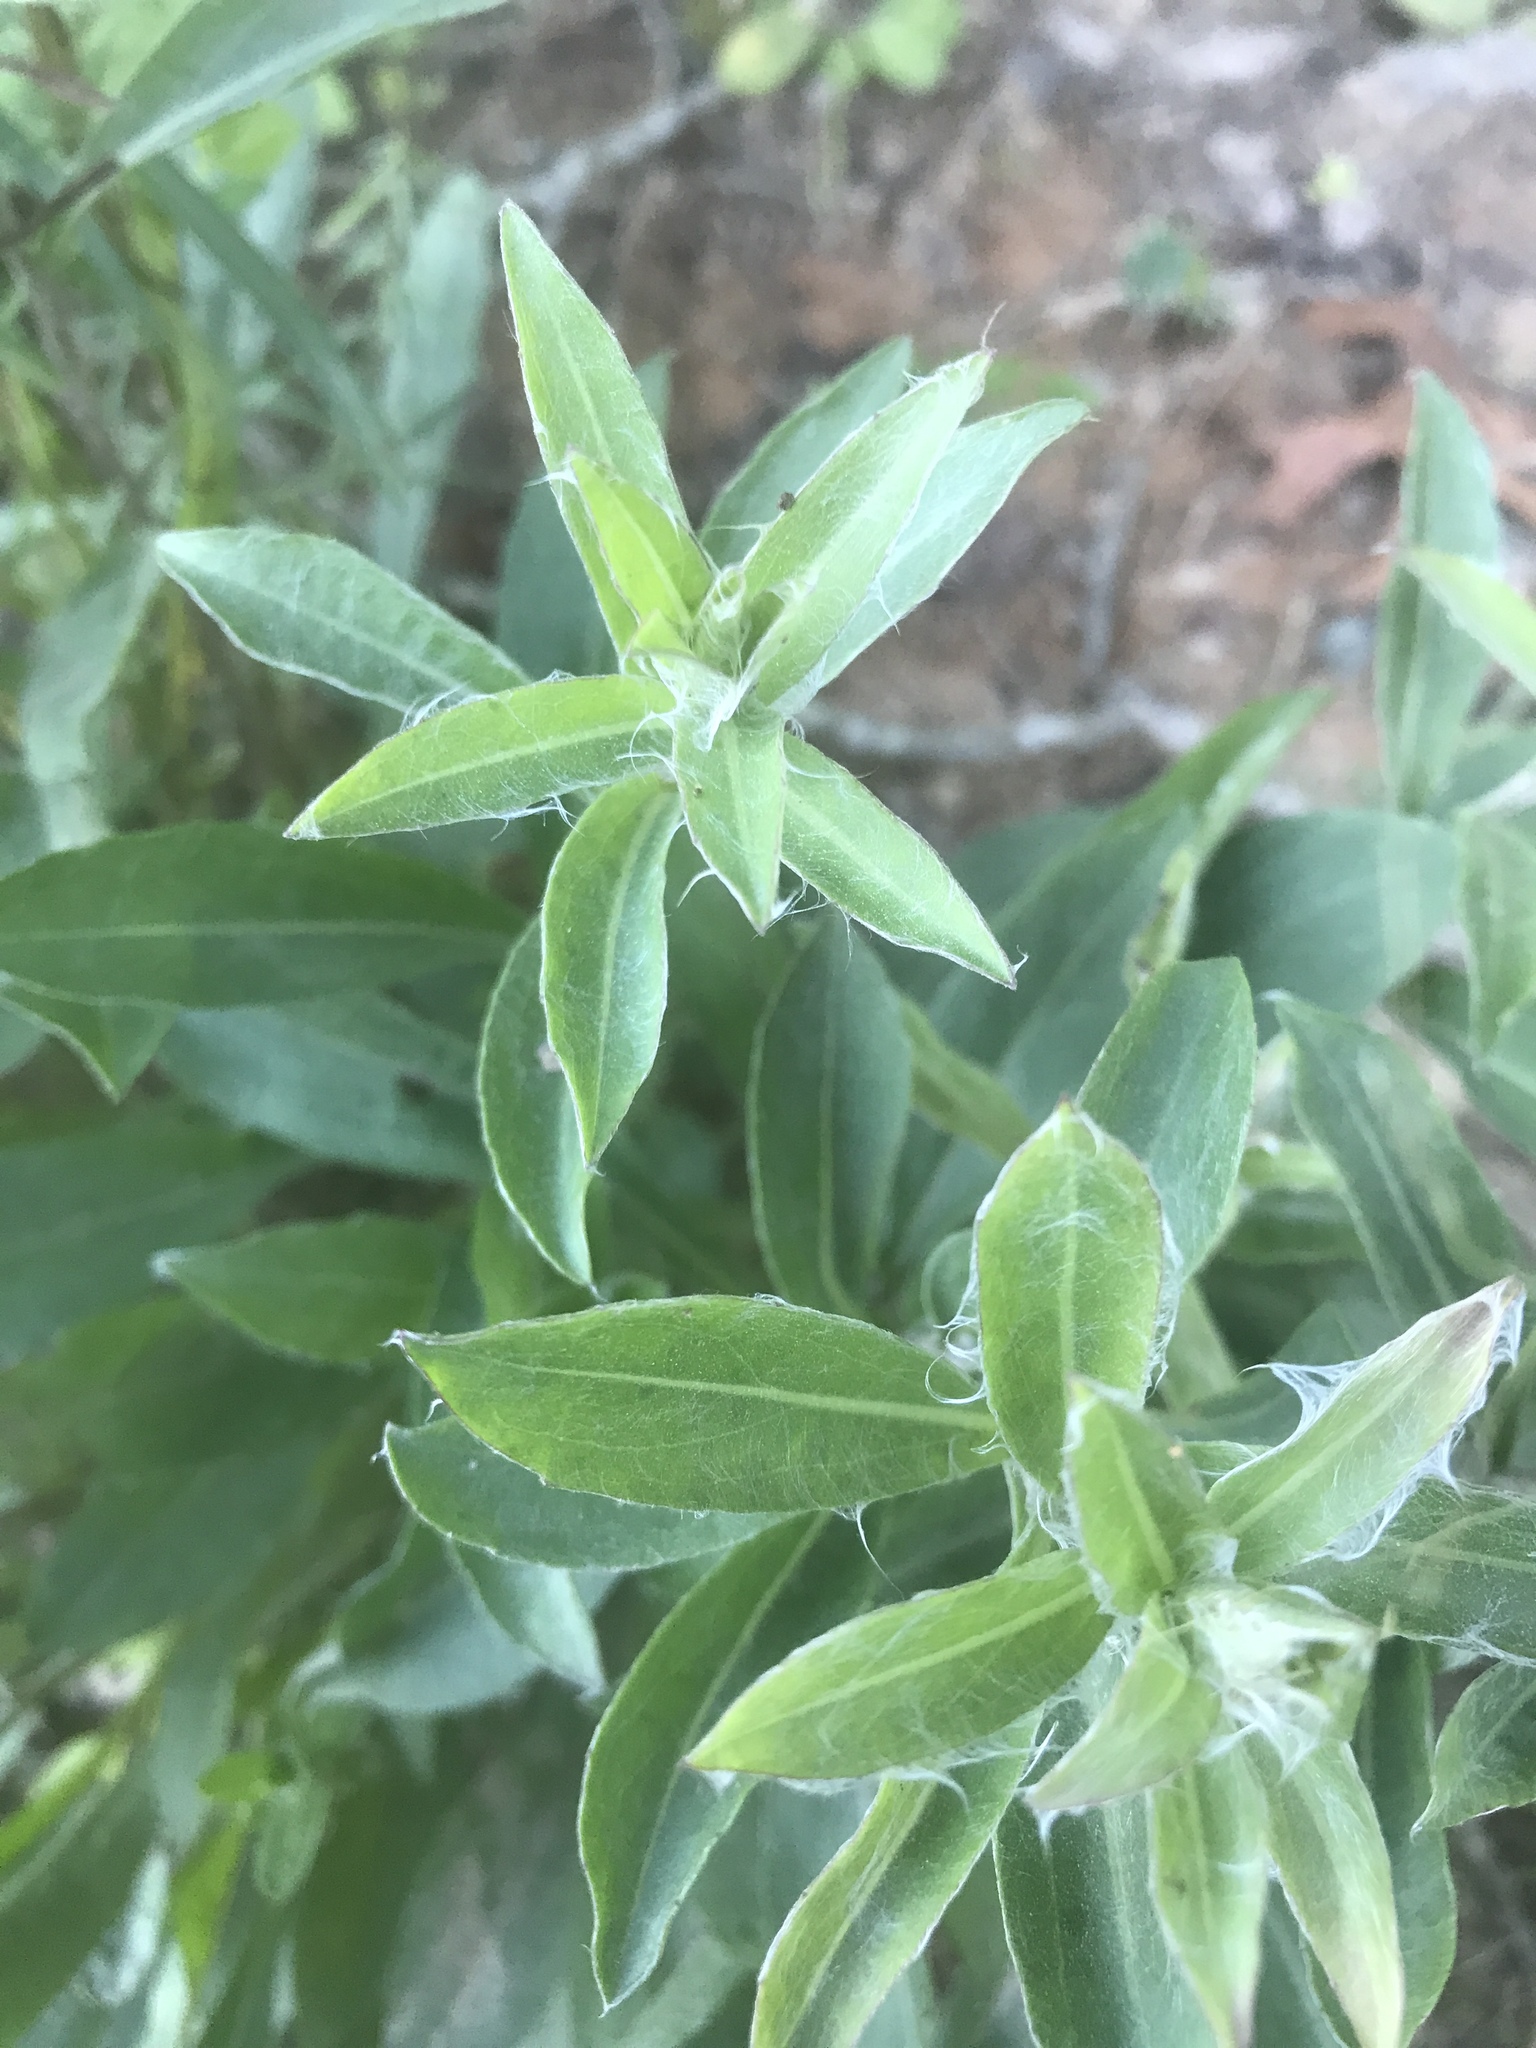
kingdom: Plantae
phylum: Tracheophyta
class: Magnoliopsida
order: Asterales
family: Asteraceae
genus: Chrysopsis
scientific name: Chrysopsis mariana
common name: Maryland golden-aster
